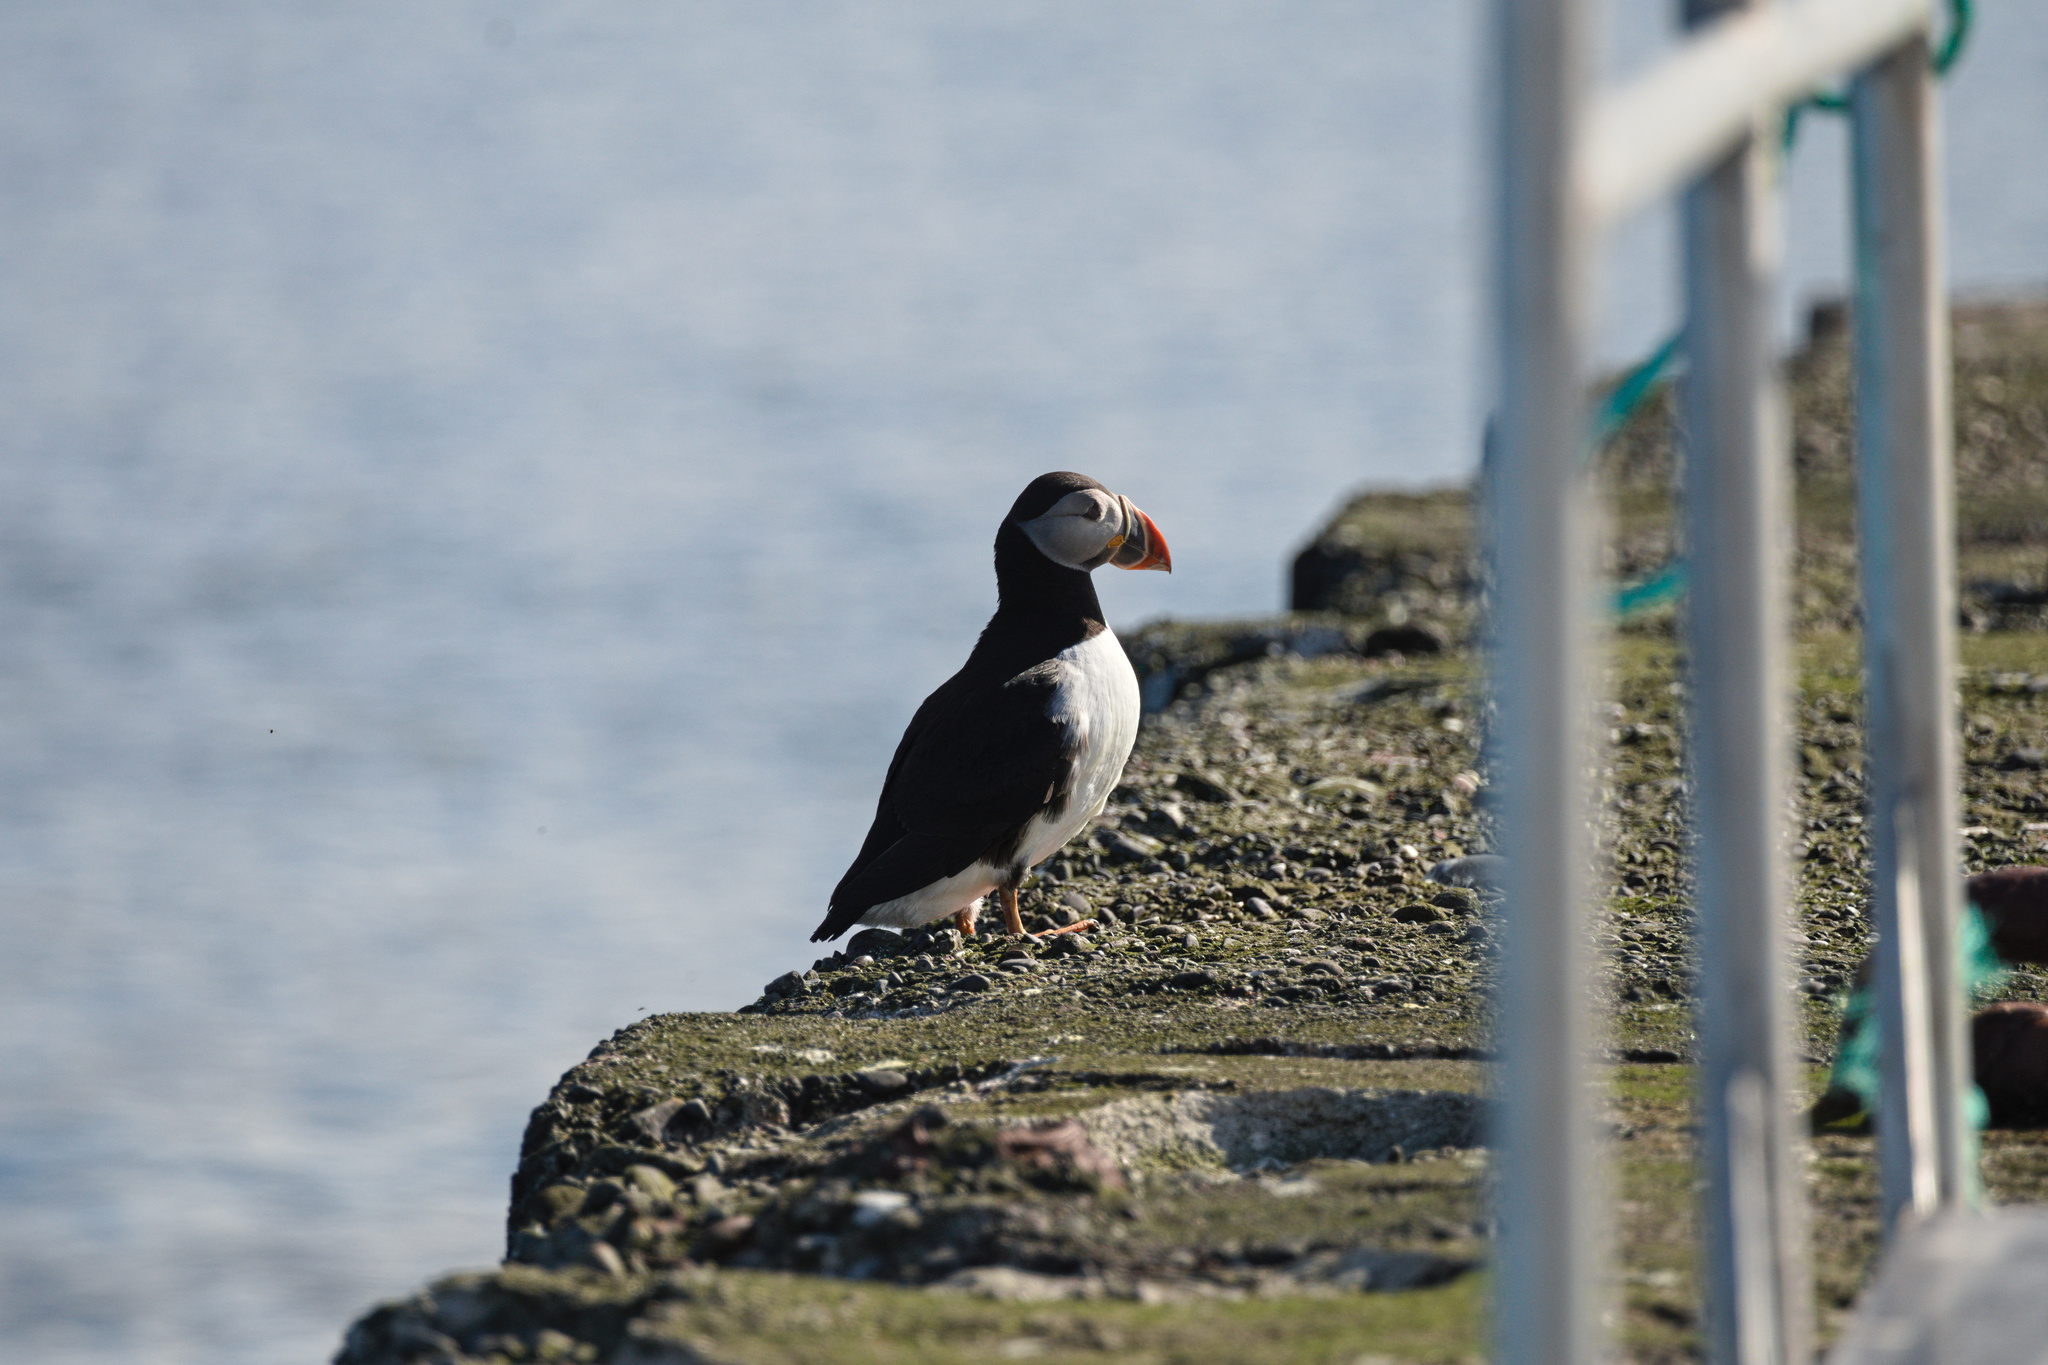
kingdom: Animalia
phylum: Chordata
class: Aves
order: Charadriiformes
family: Alcidae
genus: Fratercula
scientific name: Fratercula arctica
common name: Atlantic puffin
